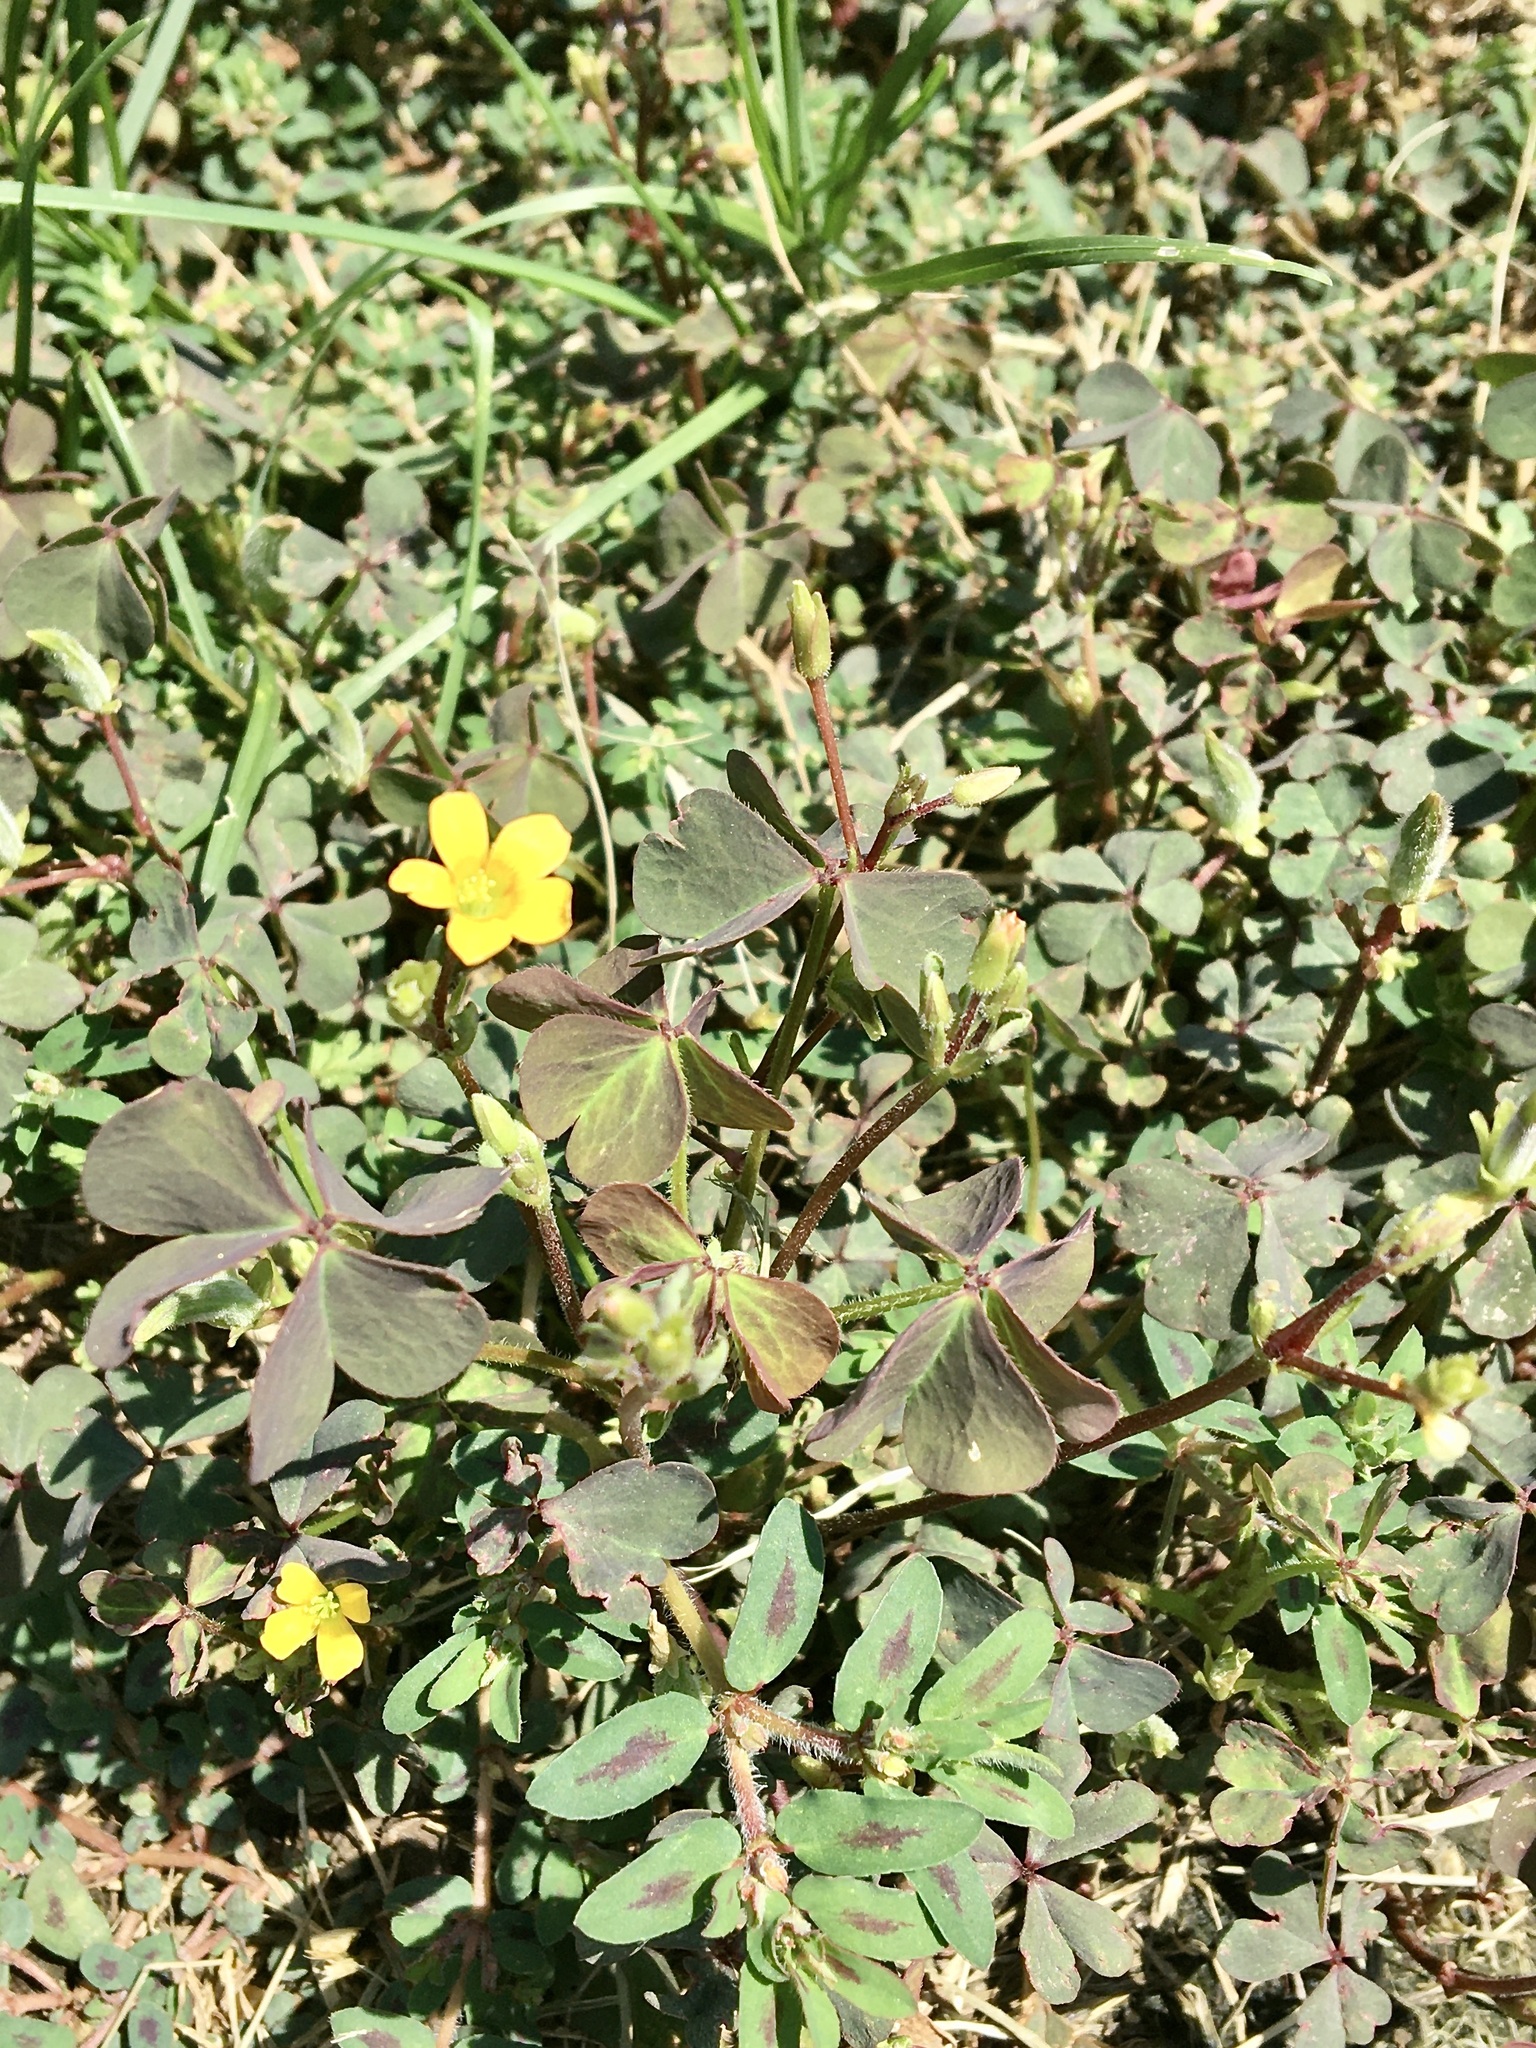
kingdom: Plantae
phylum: Tracheophyta
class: Magnoliopsida
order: Oxalidales
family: Oxalidaceae
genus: Oxalis
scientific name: Oxalis corniculata
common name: Procumbent yellow-sorrel
